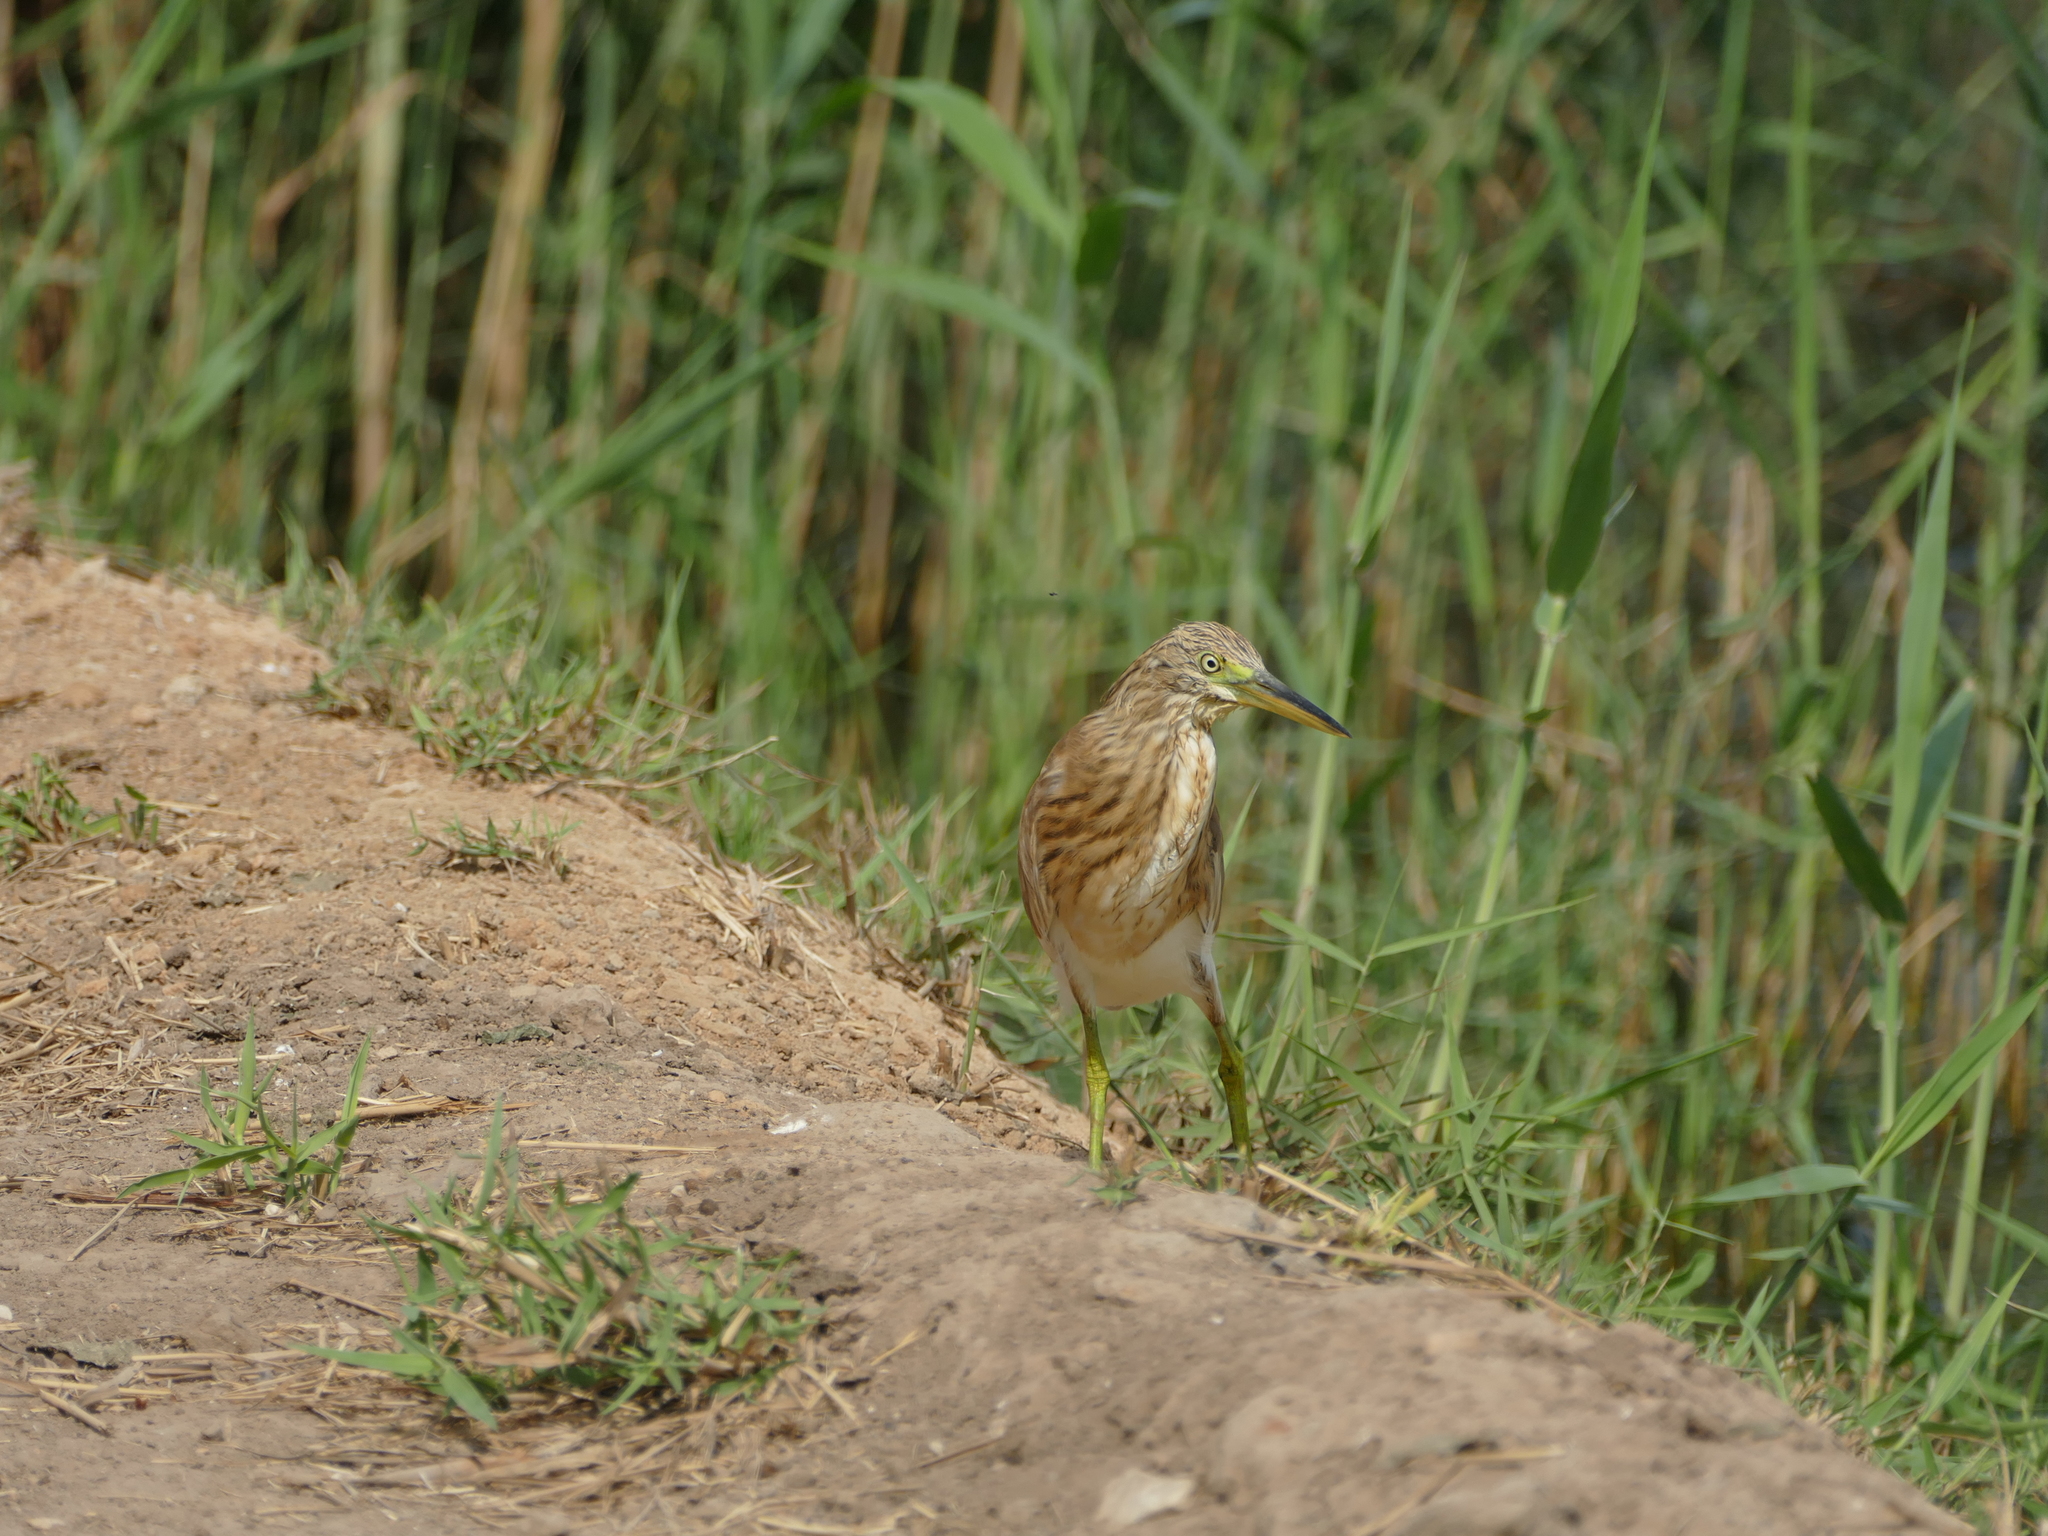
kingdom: Animalia
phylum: Chordata
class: Aves
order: Pelecaniformes
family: Ardeidae
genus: Ardeola
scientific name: Ardeola ralloides
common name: Squacco heron
